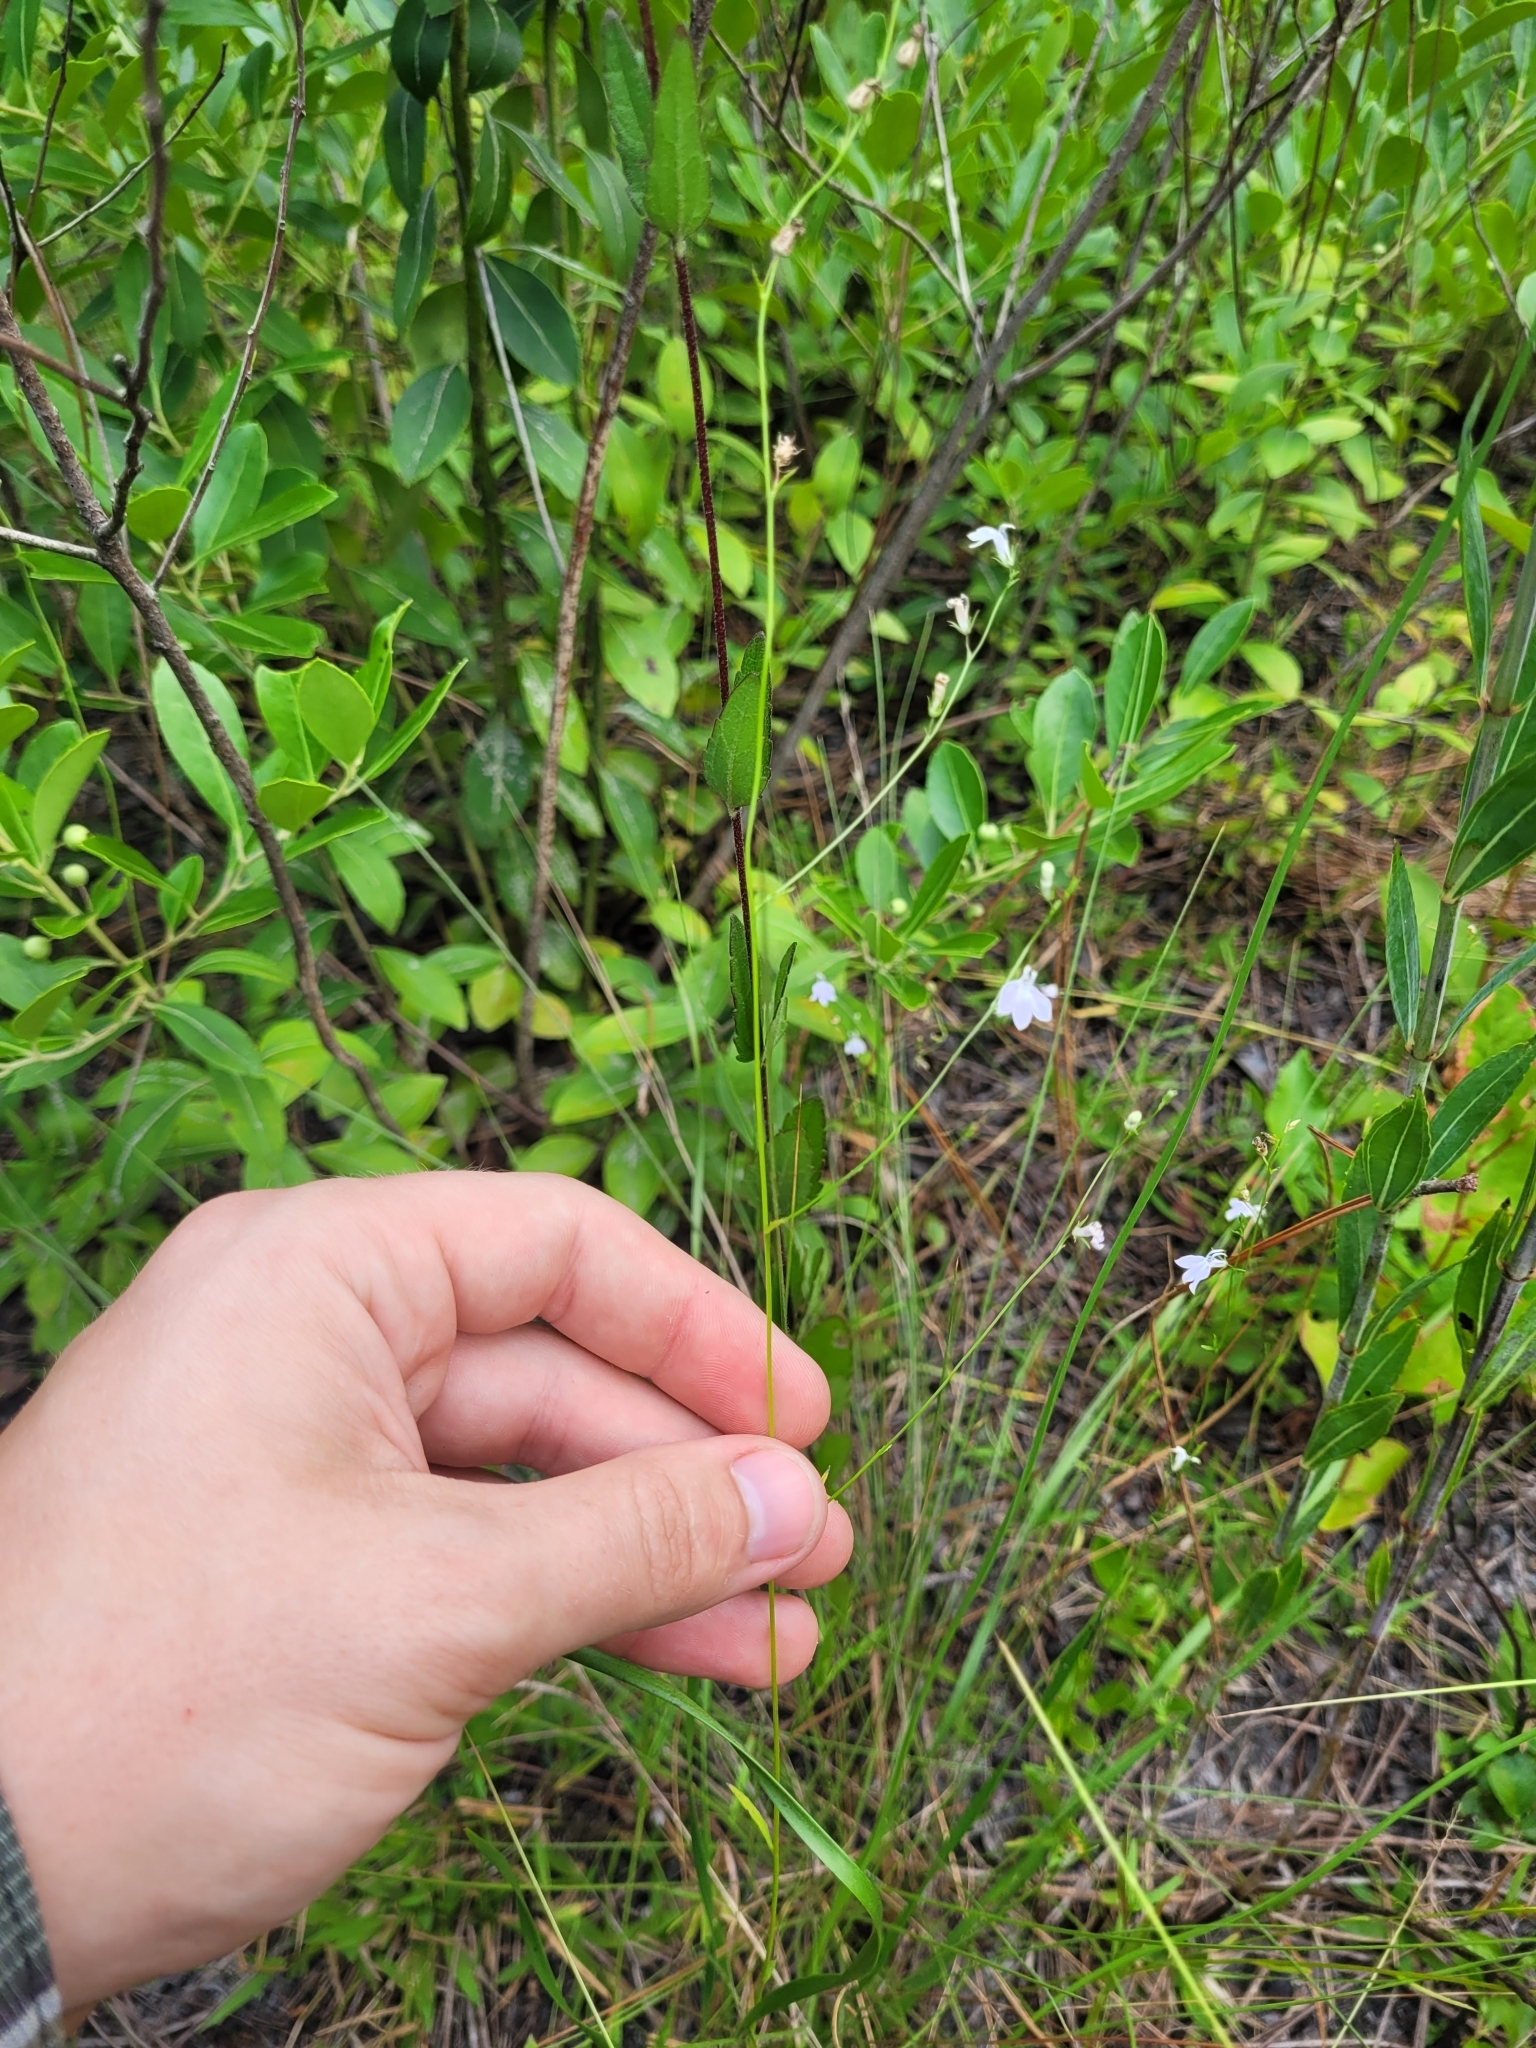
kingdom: Plantae
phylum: Tracheophyta
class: Magnoliopsida
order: Asterales
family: Campanulaceae
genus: Lobelia
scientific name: Lobelia nuttallii
